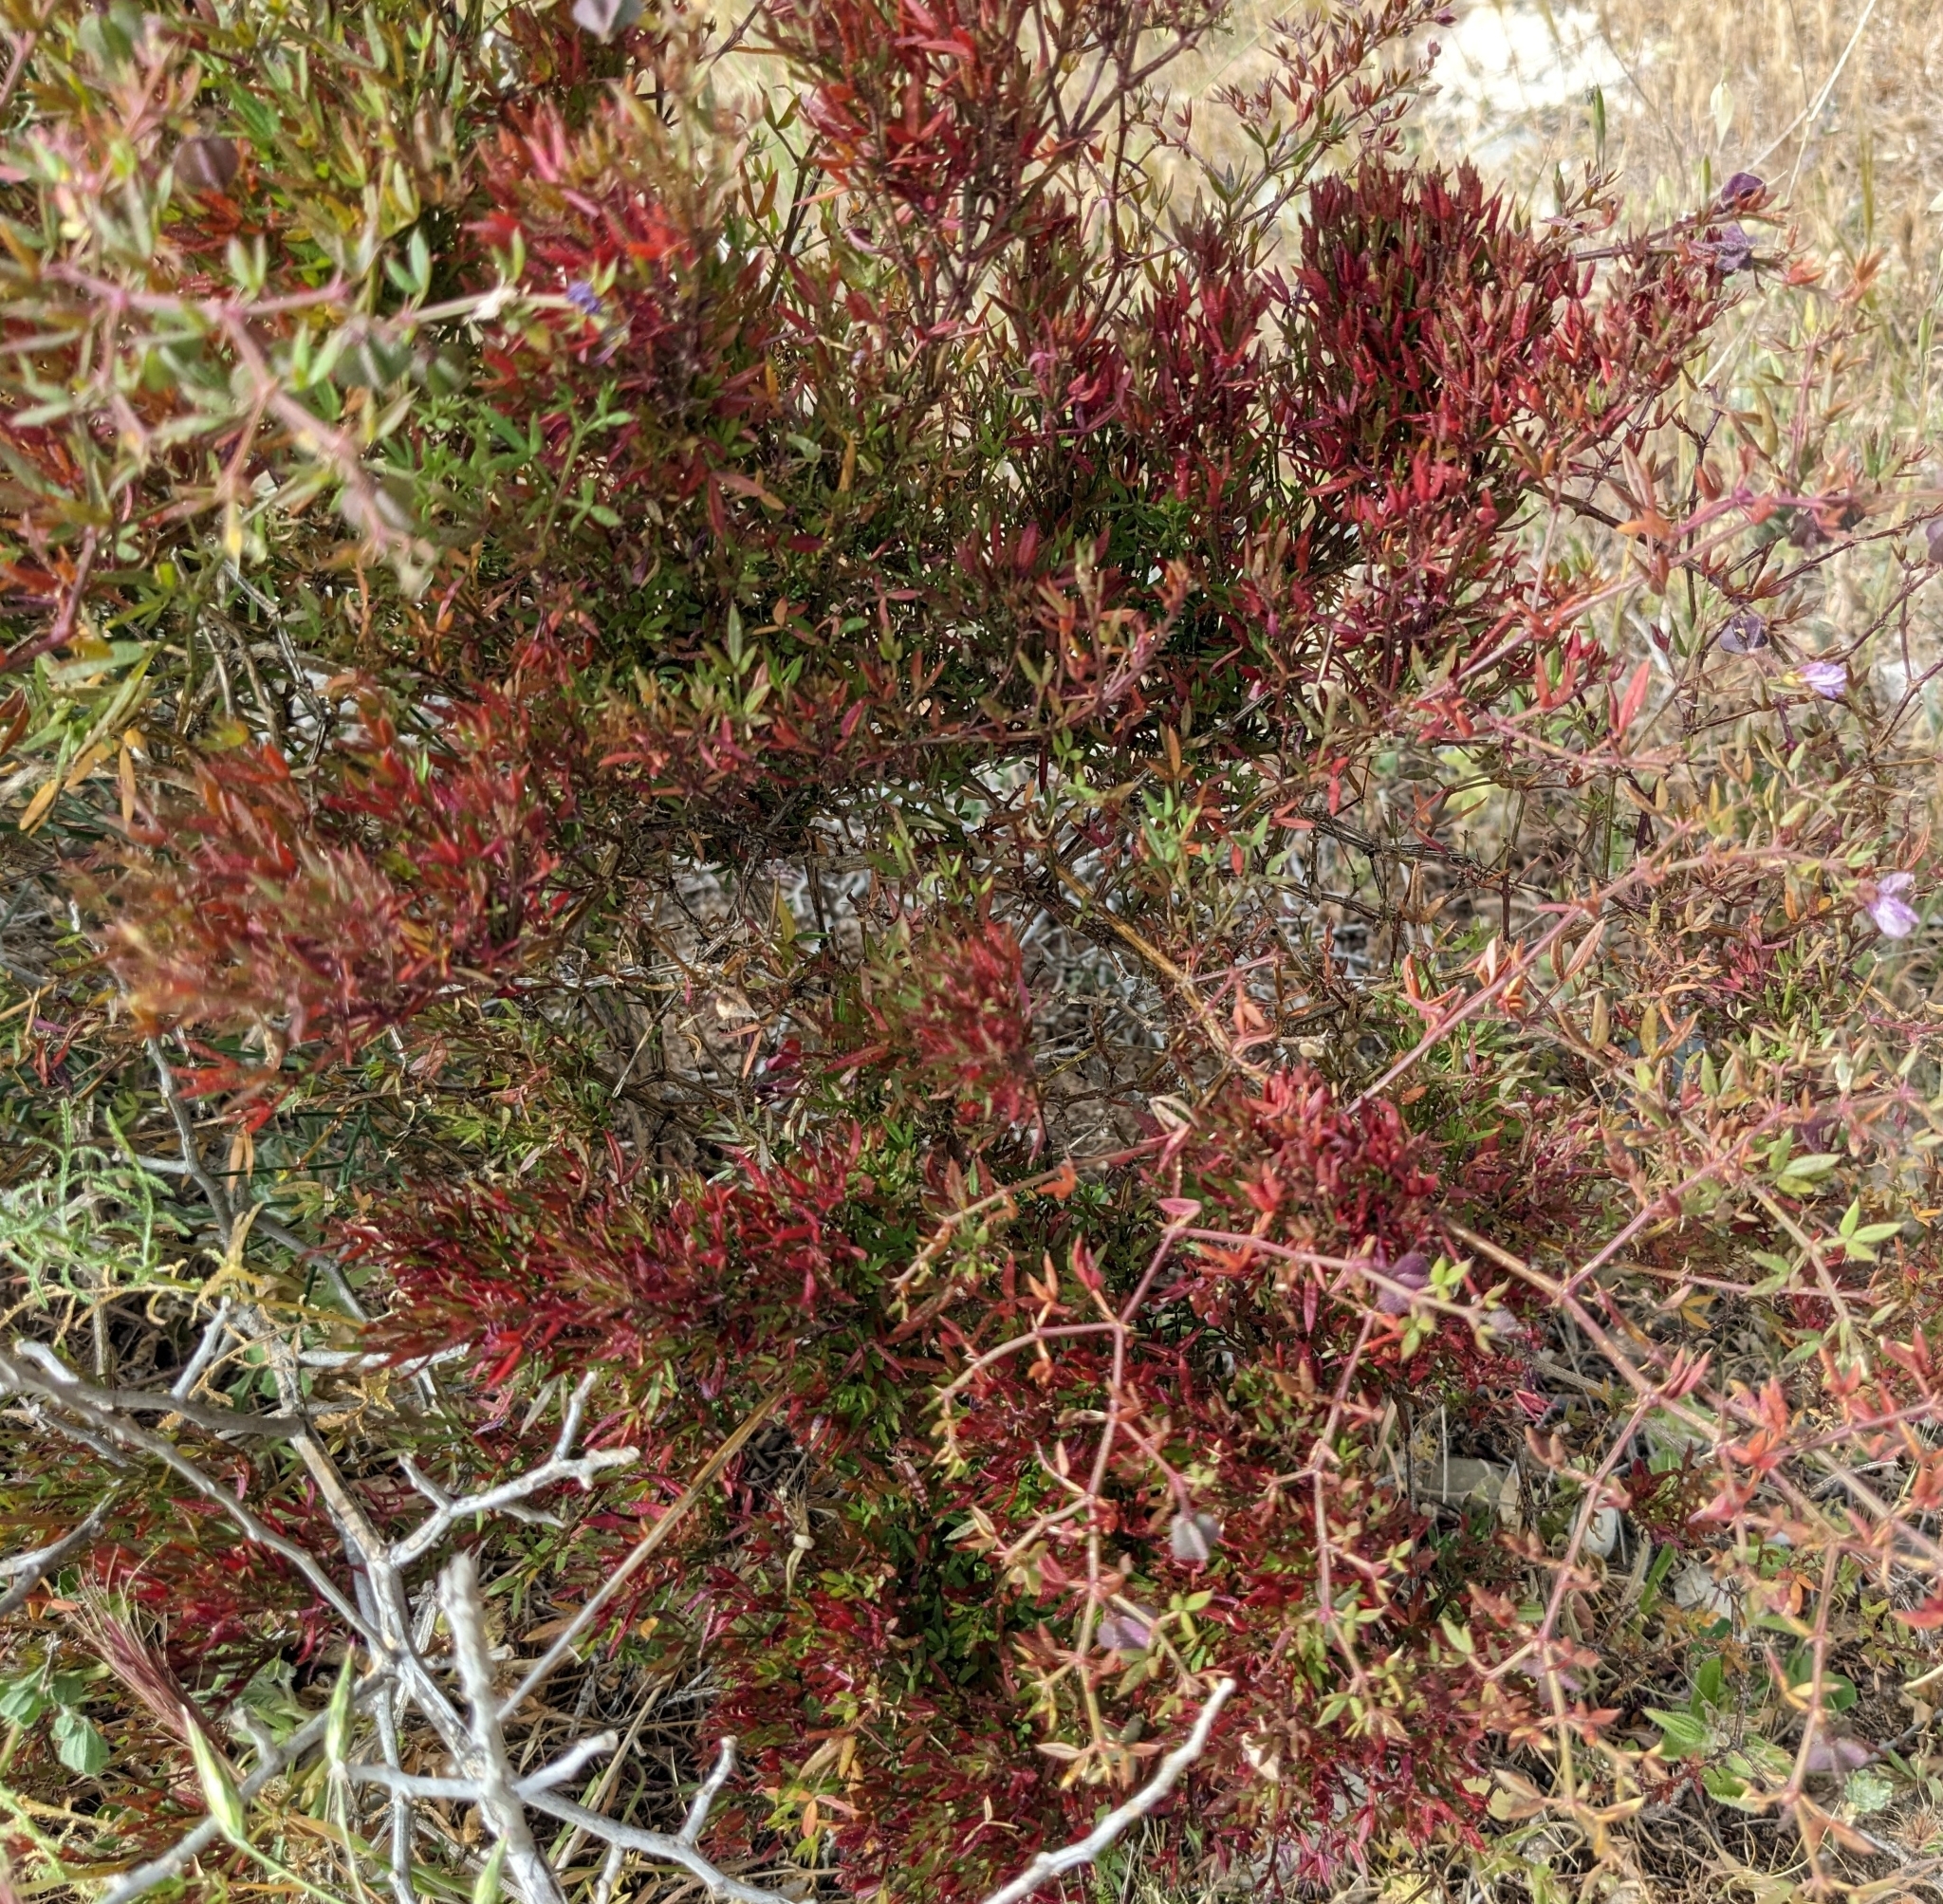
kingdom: Plantae
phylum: Tracheophyta
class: Magnoliopsida
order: Zygophyllales
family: Zygophyllaceae
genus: Fagonia
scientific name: Fagonia cretica
